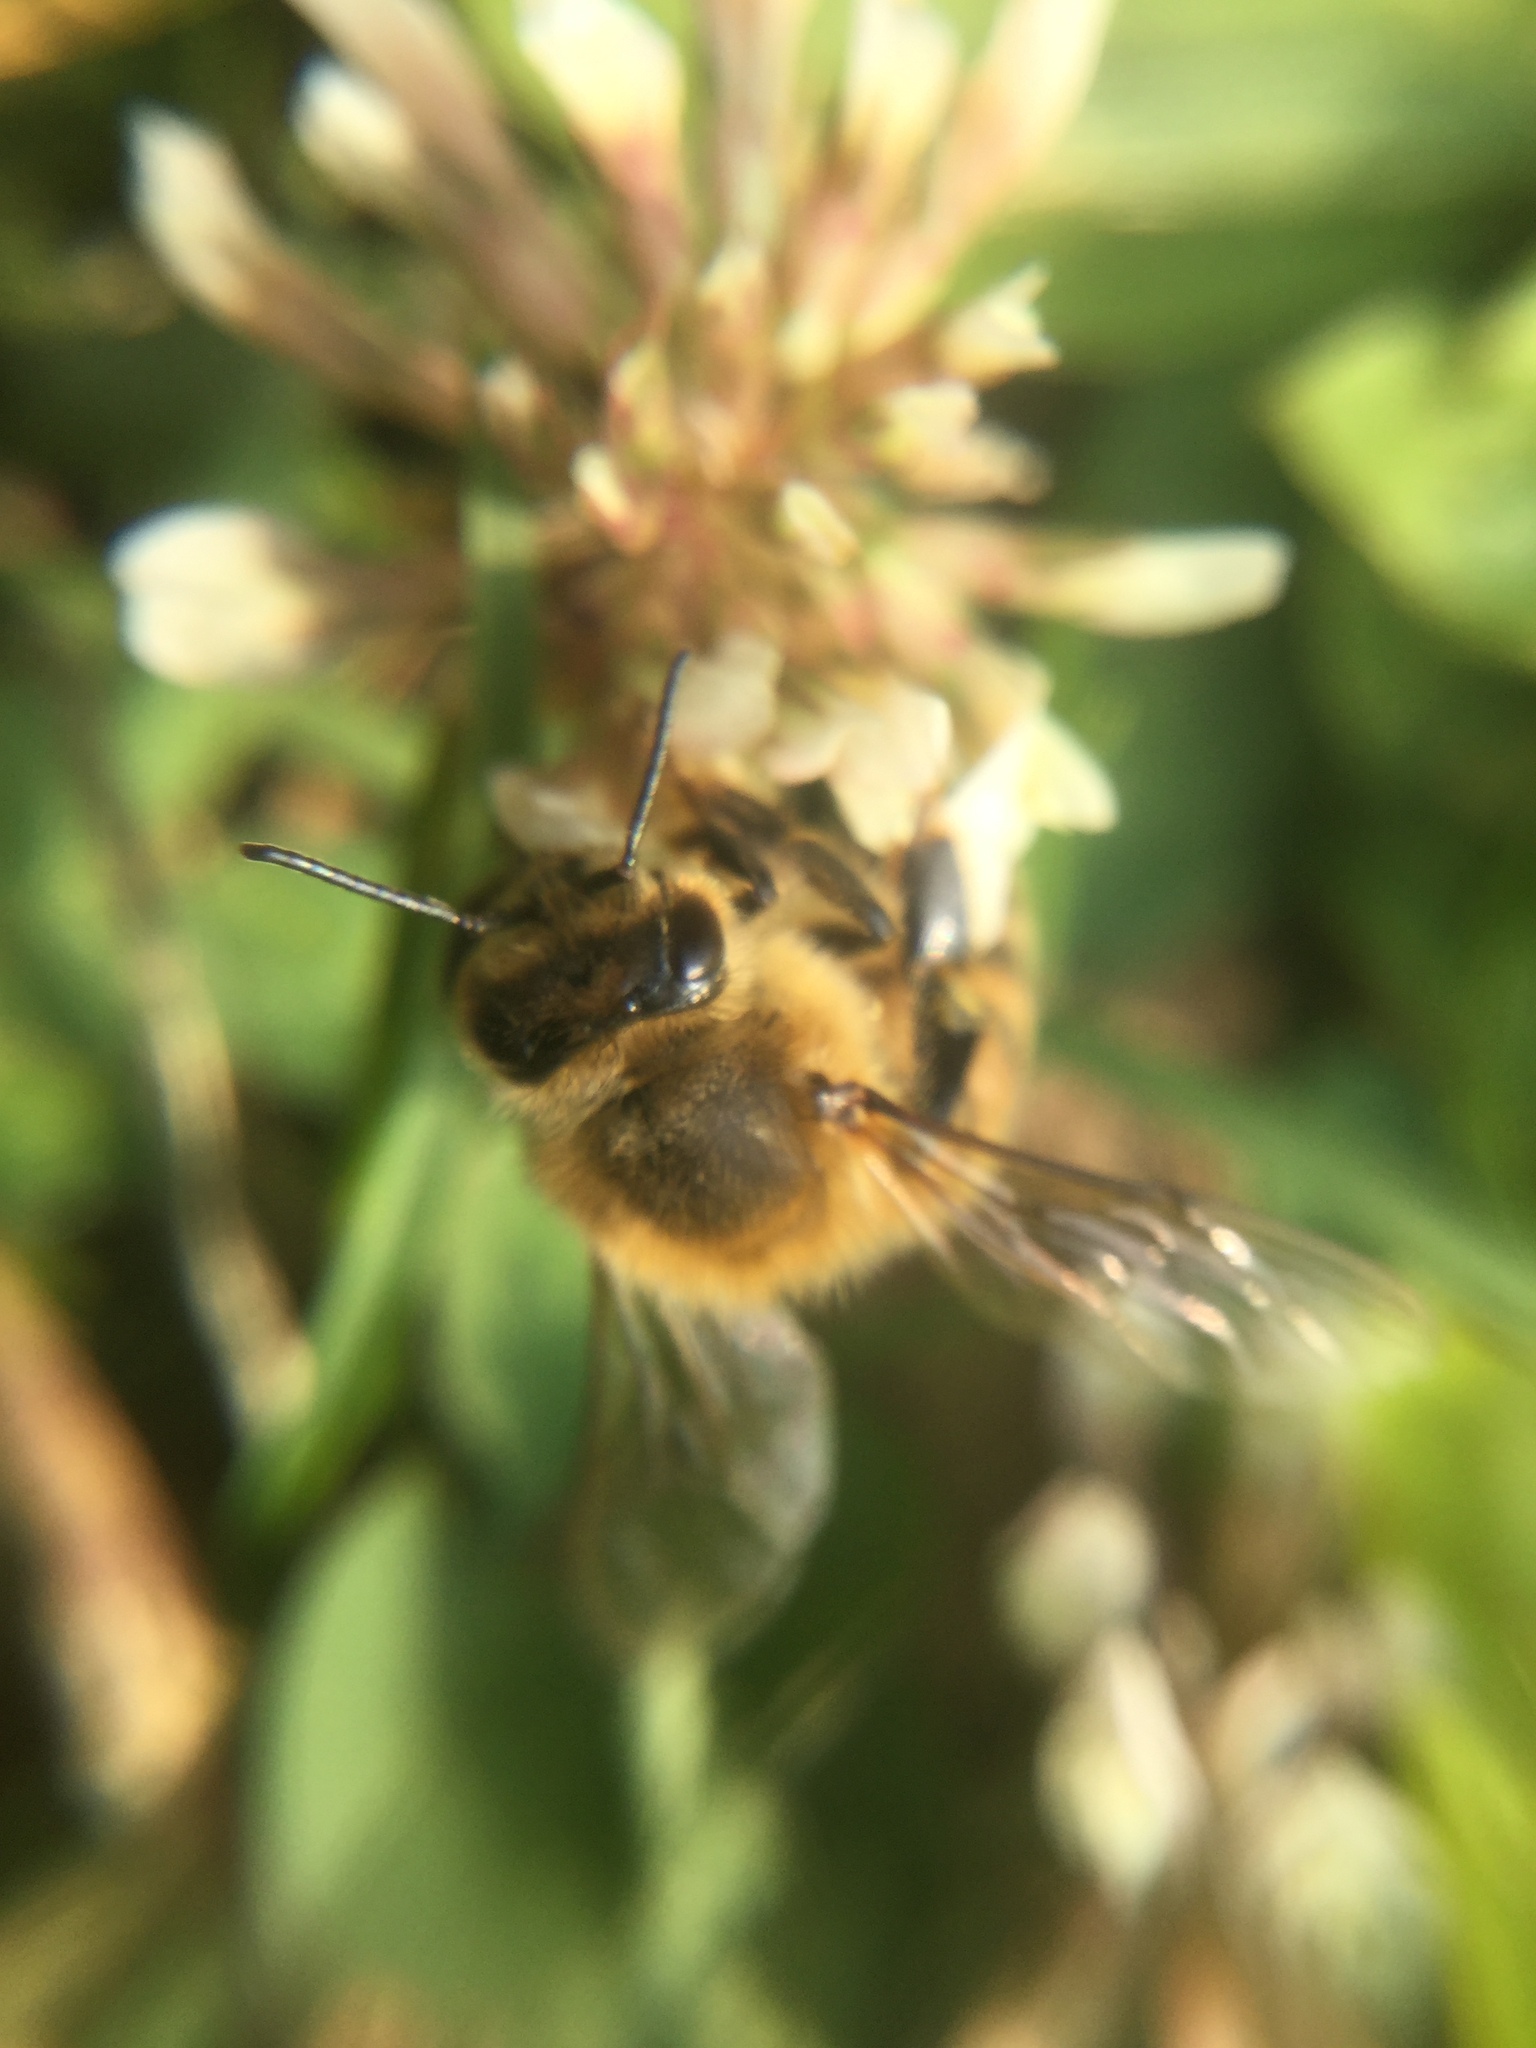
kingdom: Animalia
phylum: Arthropoda
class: Insecta
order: Hymenoptera
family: Apidae
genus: Apis
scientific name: Apis mellifera
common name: Honey bee
